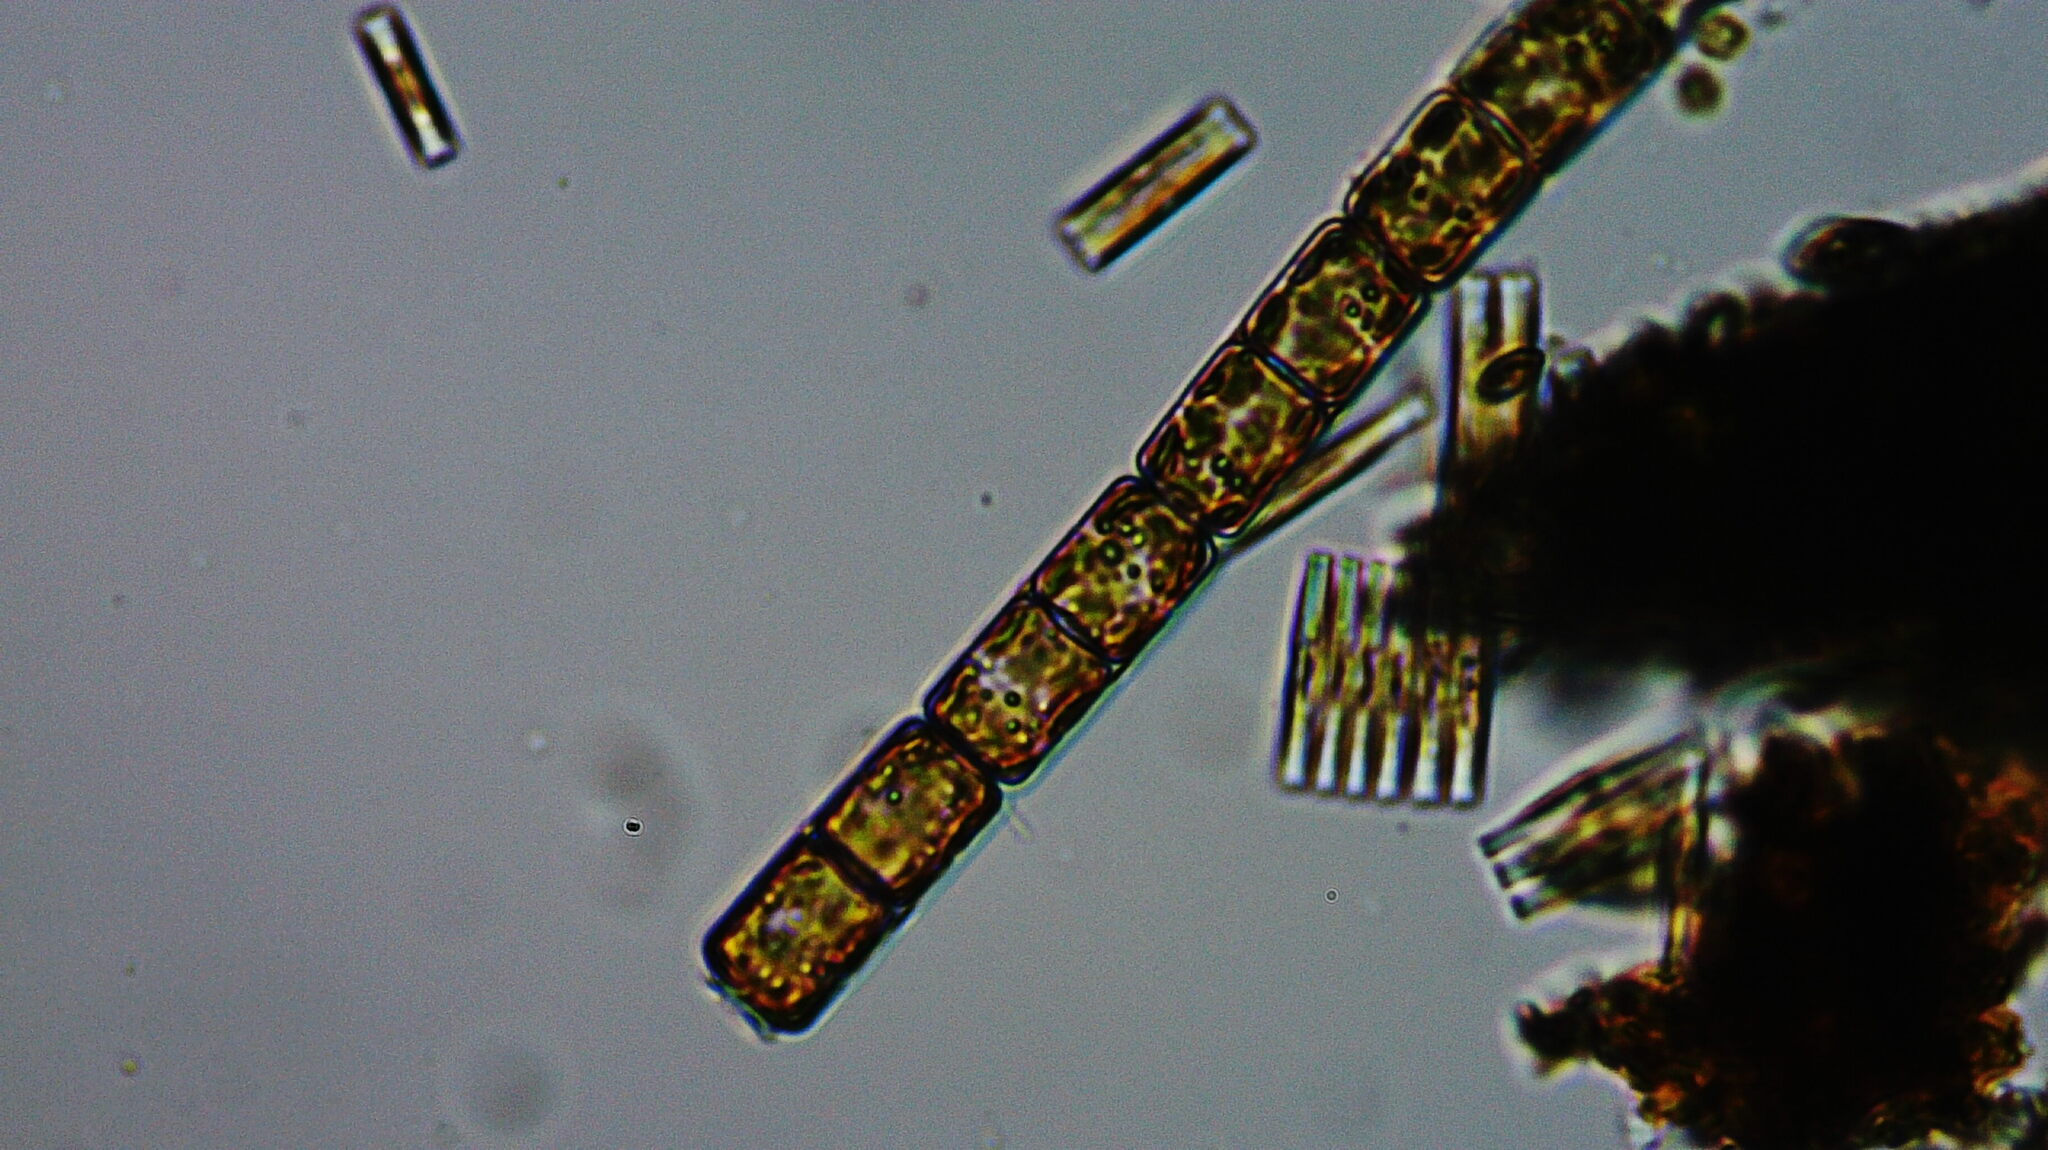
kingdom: Chromista
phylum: Ochrophyta
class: Bacillariophyceae
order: Melosirales
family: Melosiraceae
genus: Melosira
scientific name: Melosira varians
